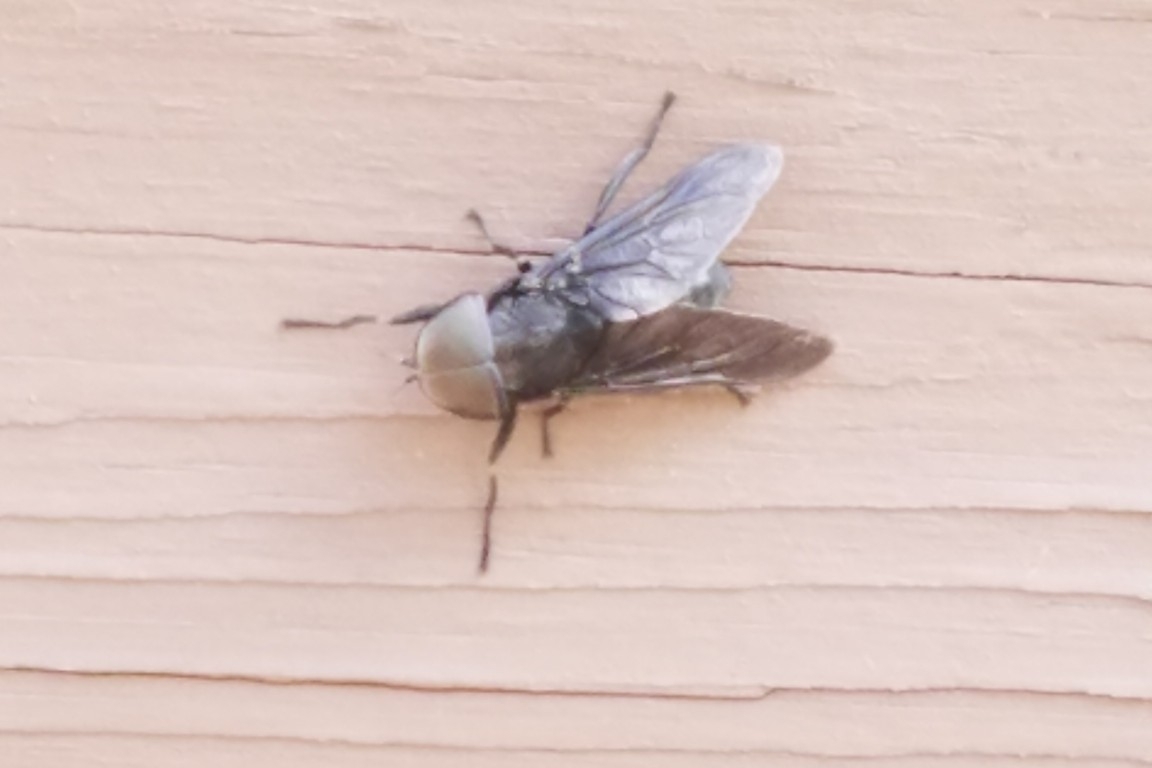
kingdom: Animalia
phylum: Arthropoda
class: Insecta
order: Diptera
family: Tabanidae
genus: Tabanus
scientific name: Tabanus atratus
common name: Black horse fly
